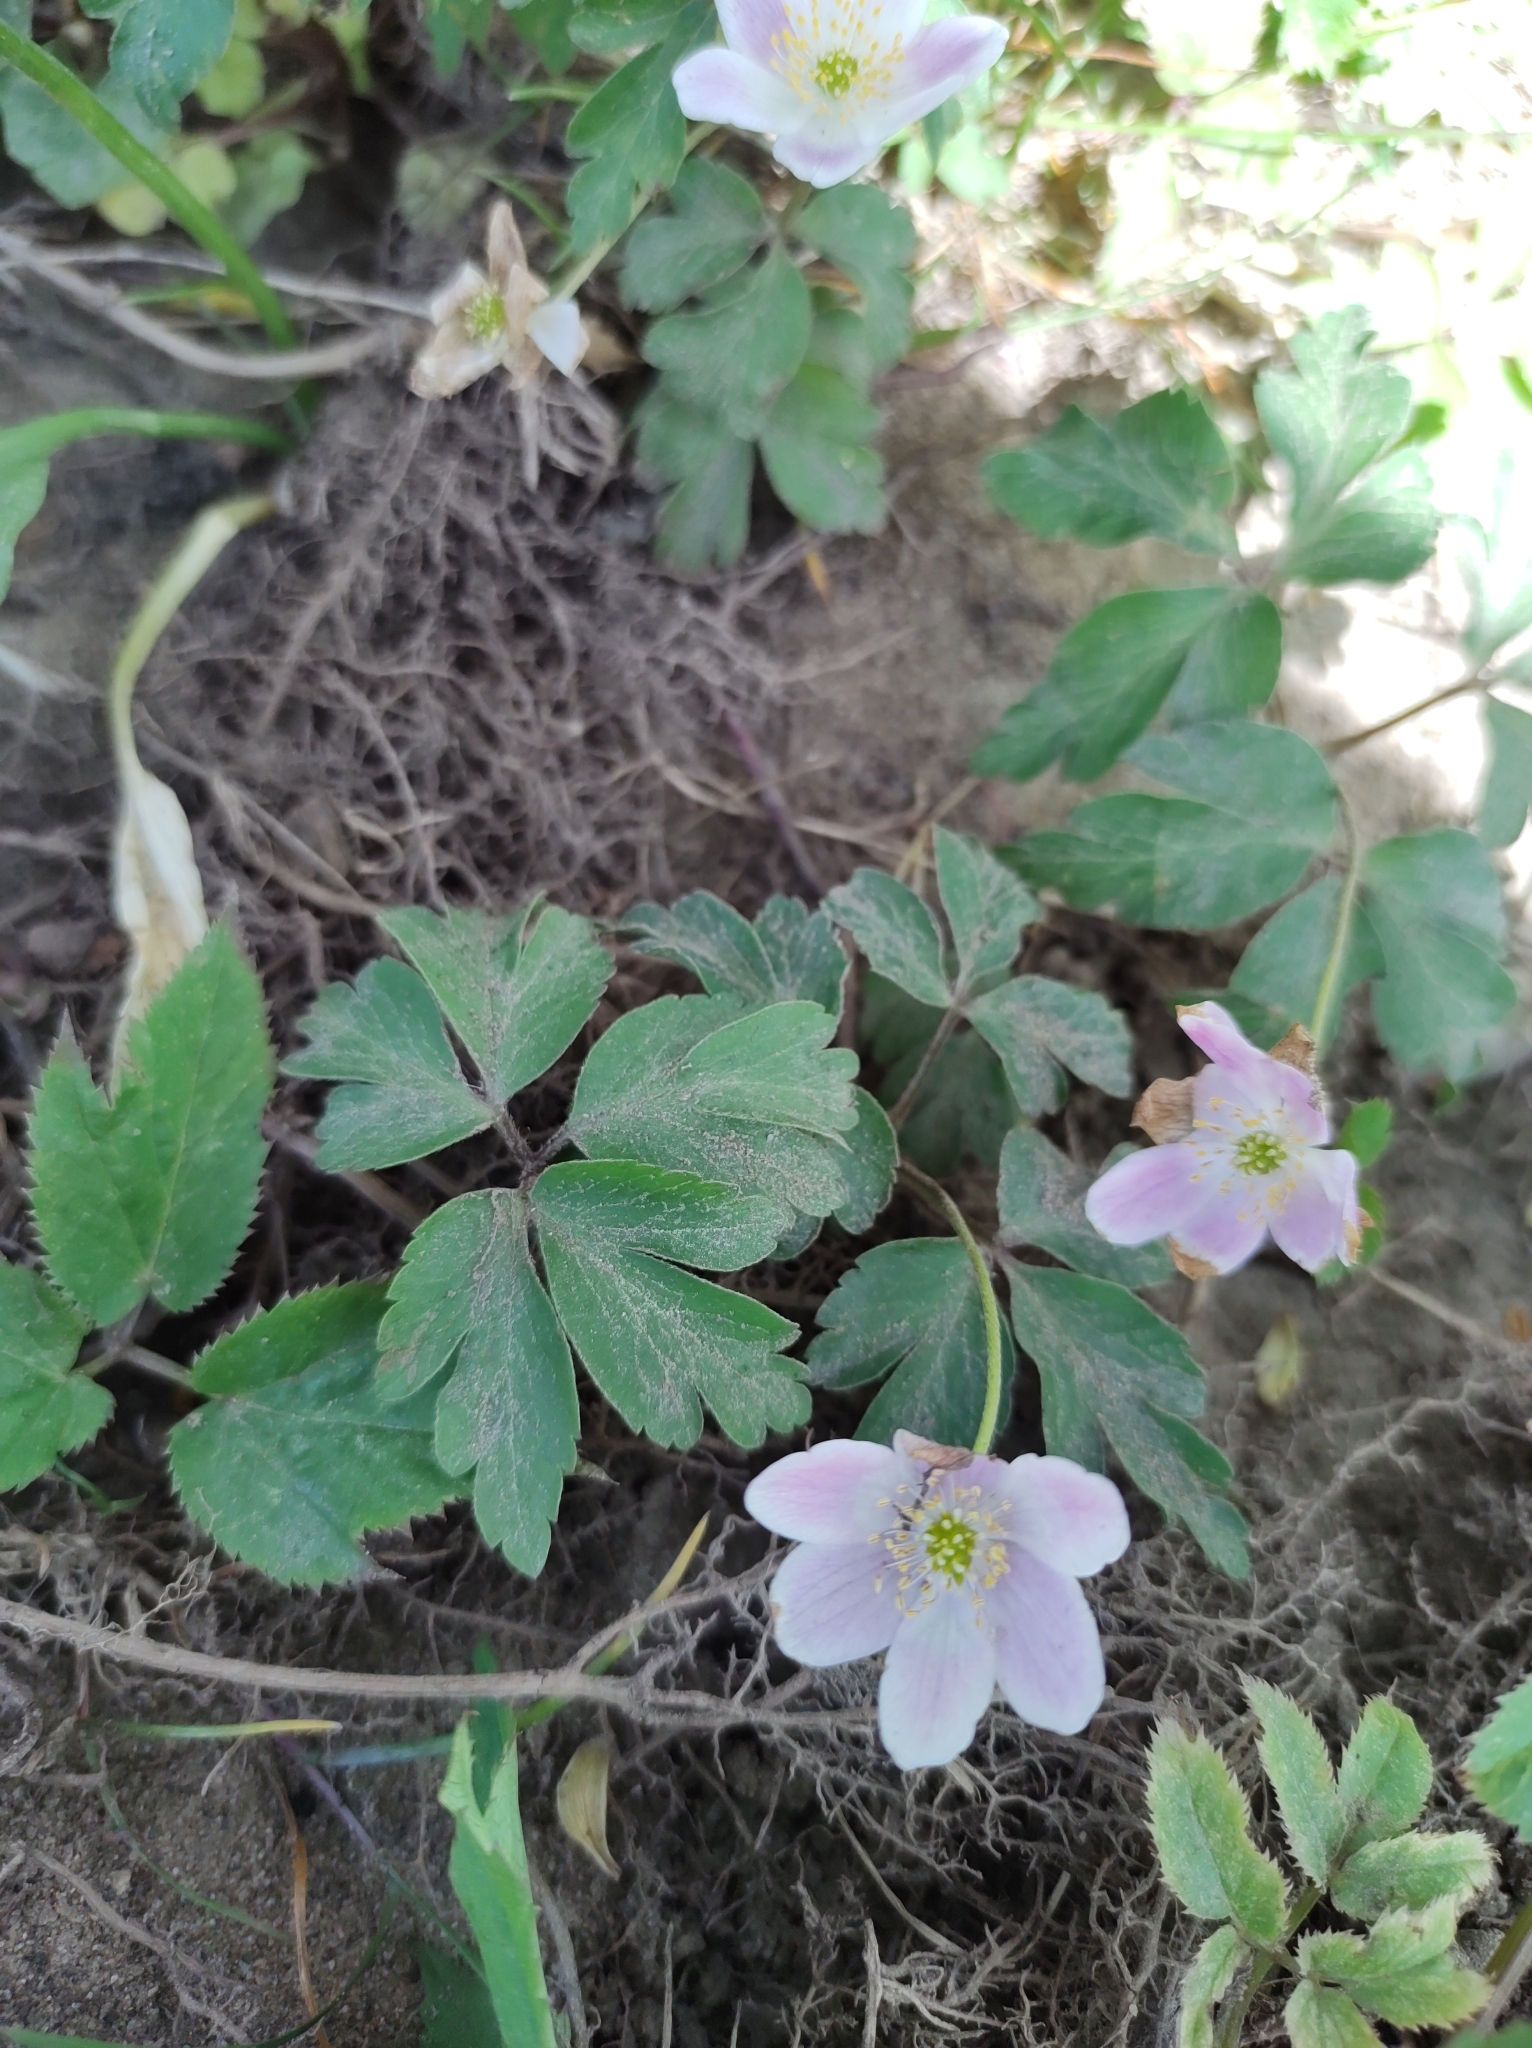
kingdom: Plantae
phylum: Tracheophyta
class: Magnoliopsida
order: Ranunculales
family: Ranunculaceae
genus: Anemone
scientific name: Anemone nemorosa
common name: Wood anemone
